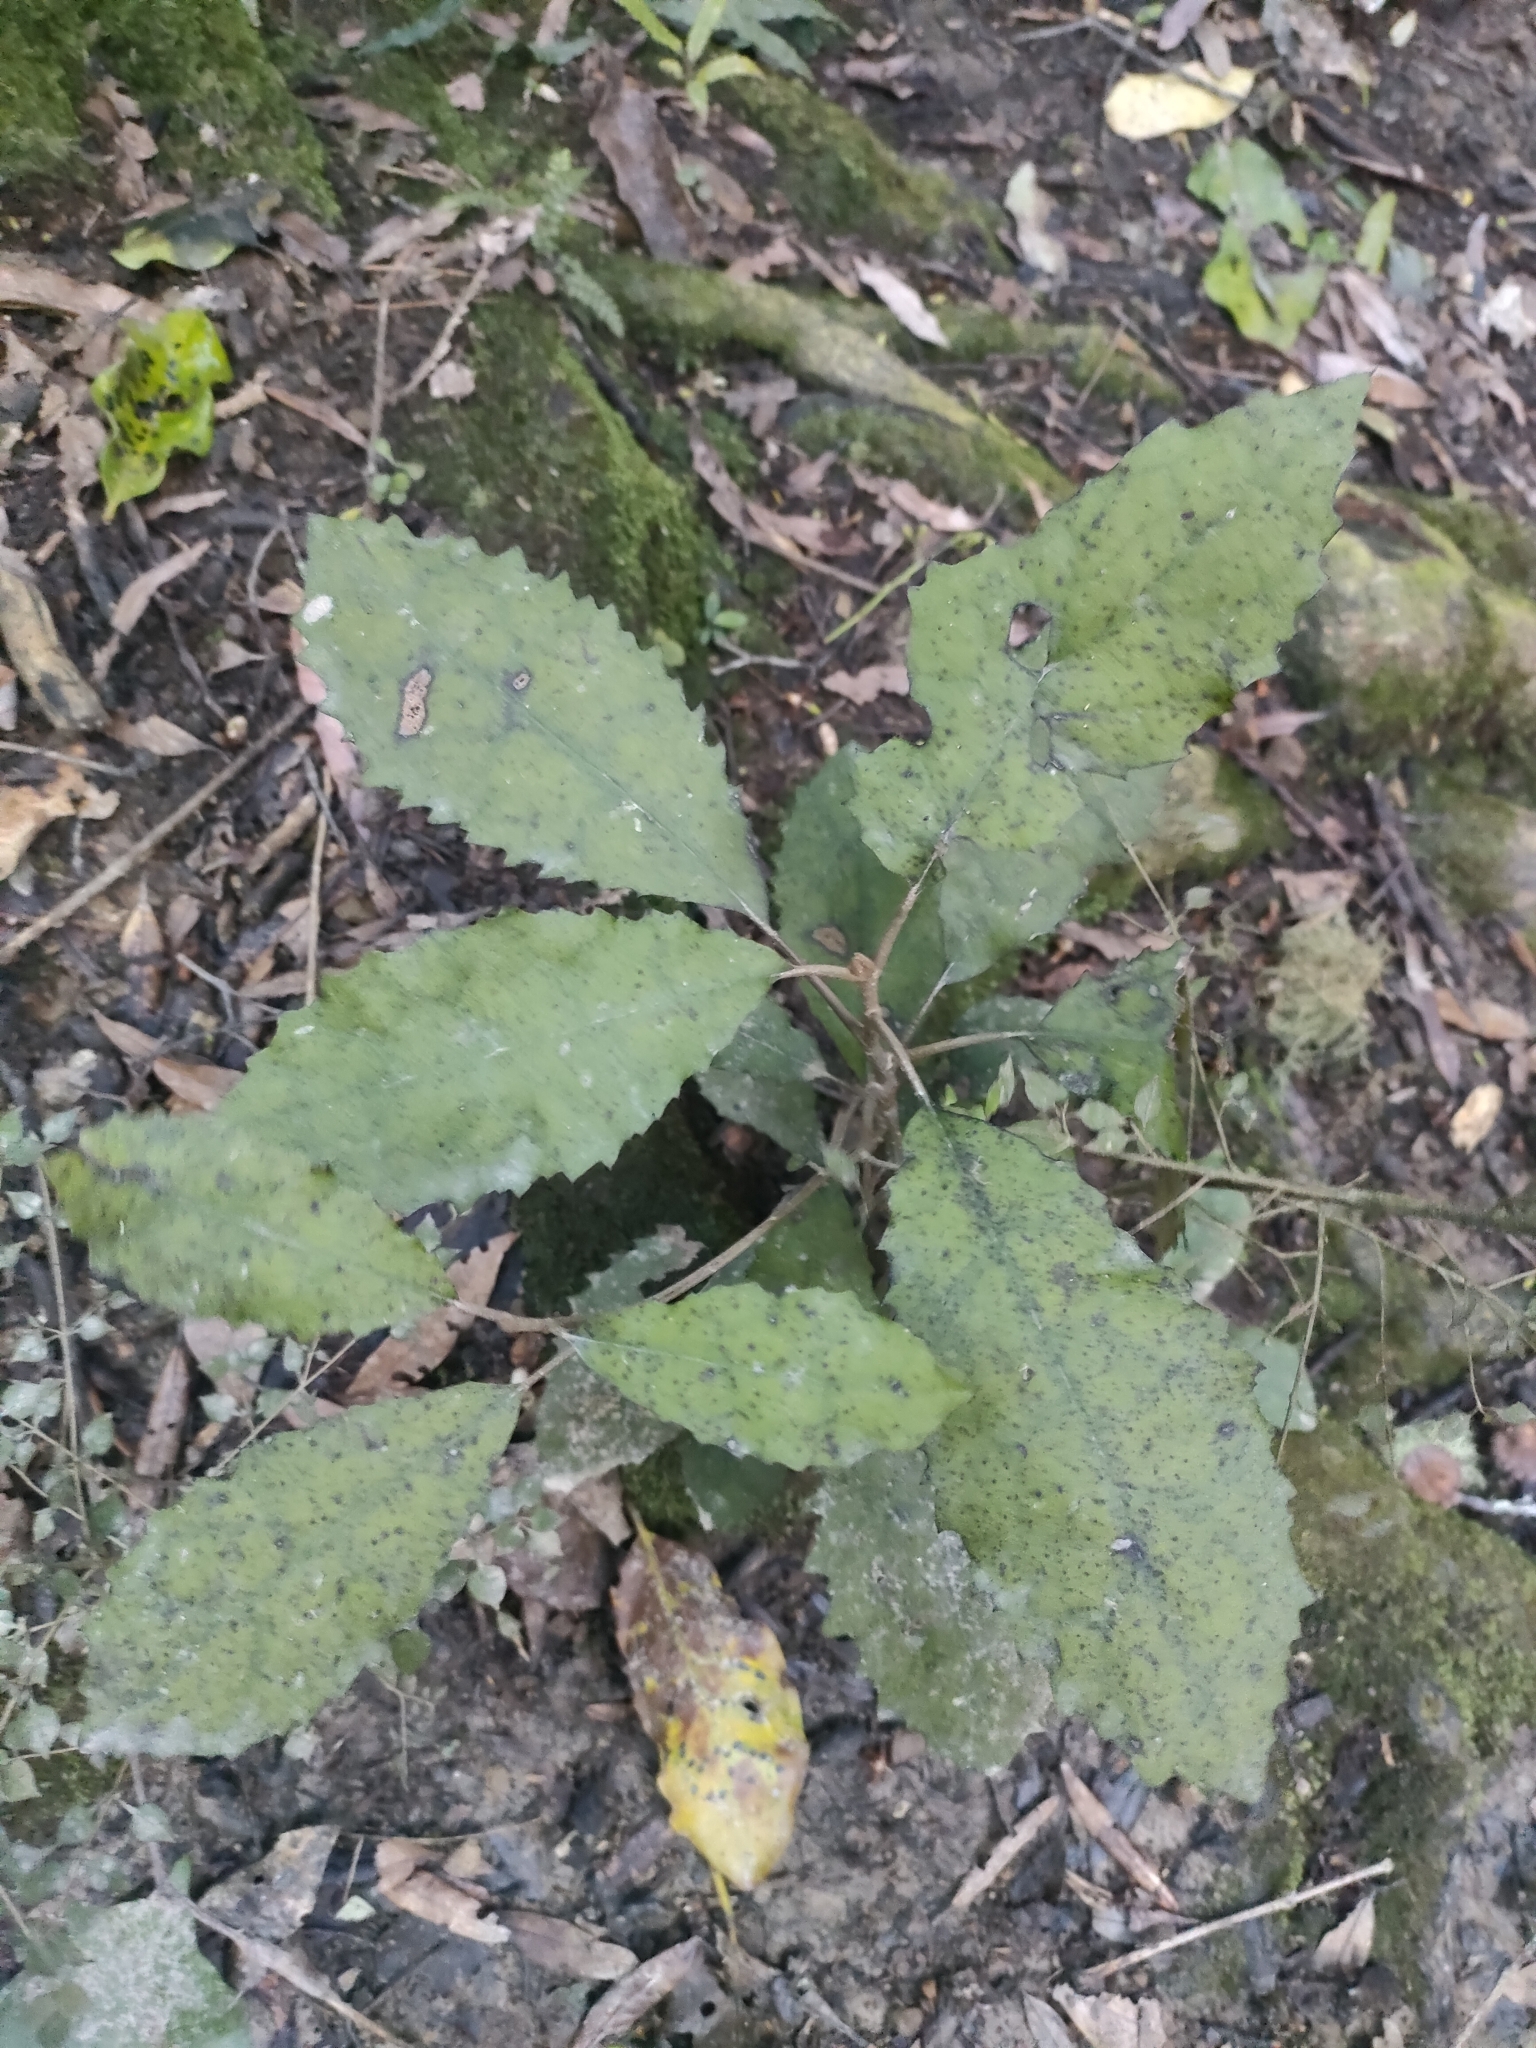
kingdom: Plantae
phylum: Tracheophyta
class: Magnoliopsida
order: Asterales
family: Asteraceae
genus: Olearia
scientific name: Olearia rani
